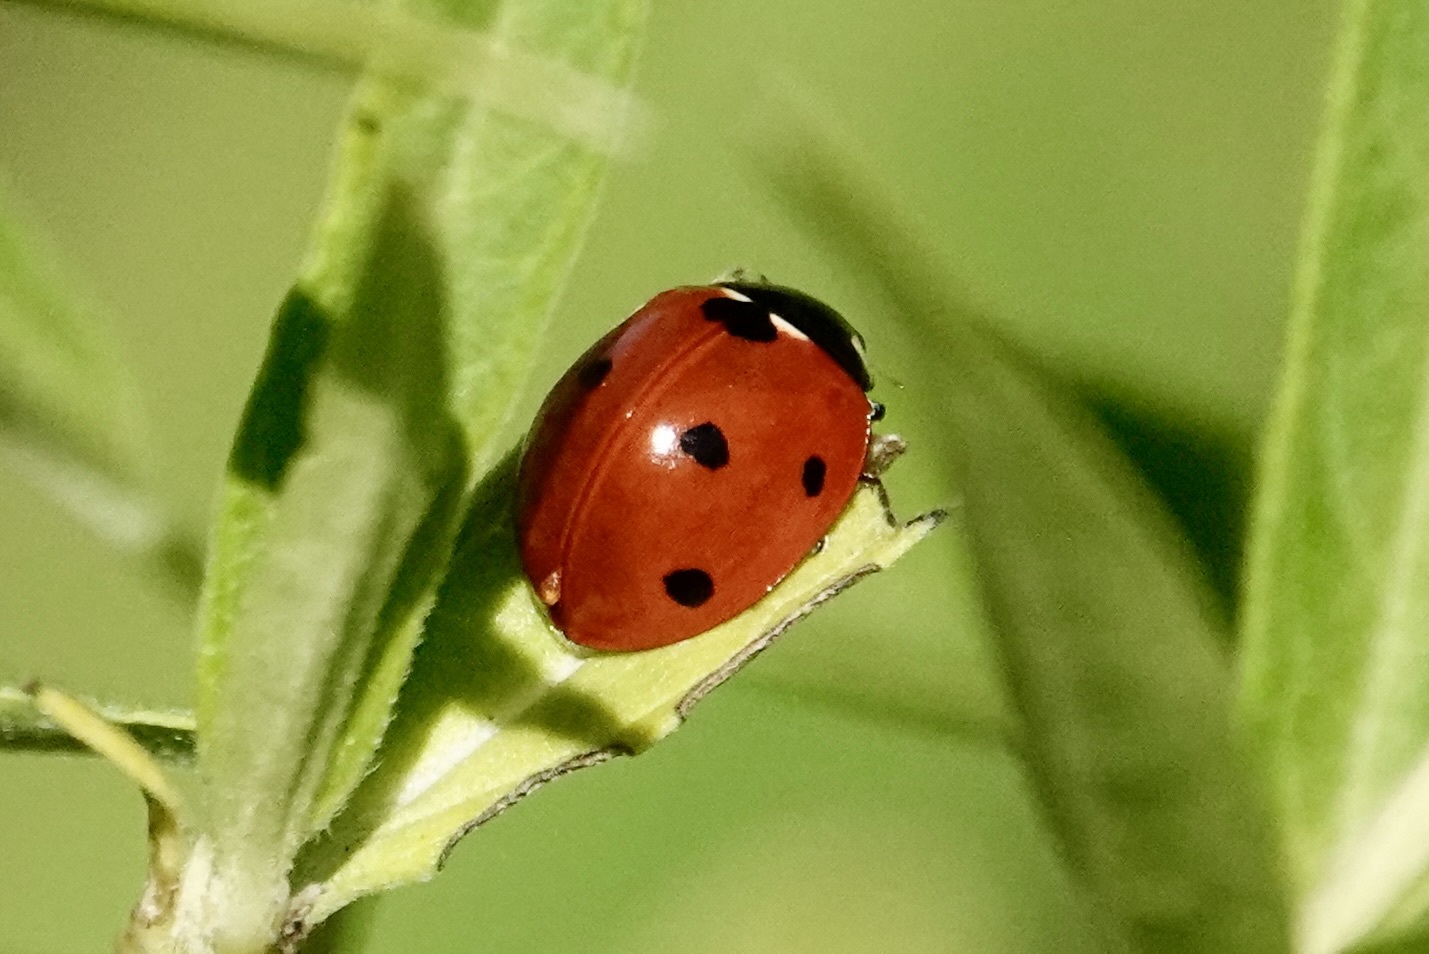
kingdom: Animalia
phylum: Arthropoda
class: Insecta
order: Coleoptera
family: Coccinellidae
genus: Coccinella
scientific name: Coccinella septempunctata
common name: Sevenspotted lady beetle
